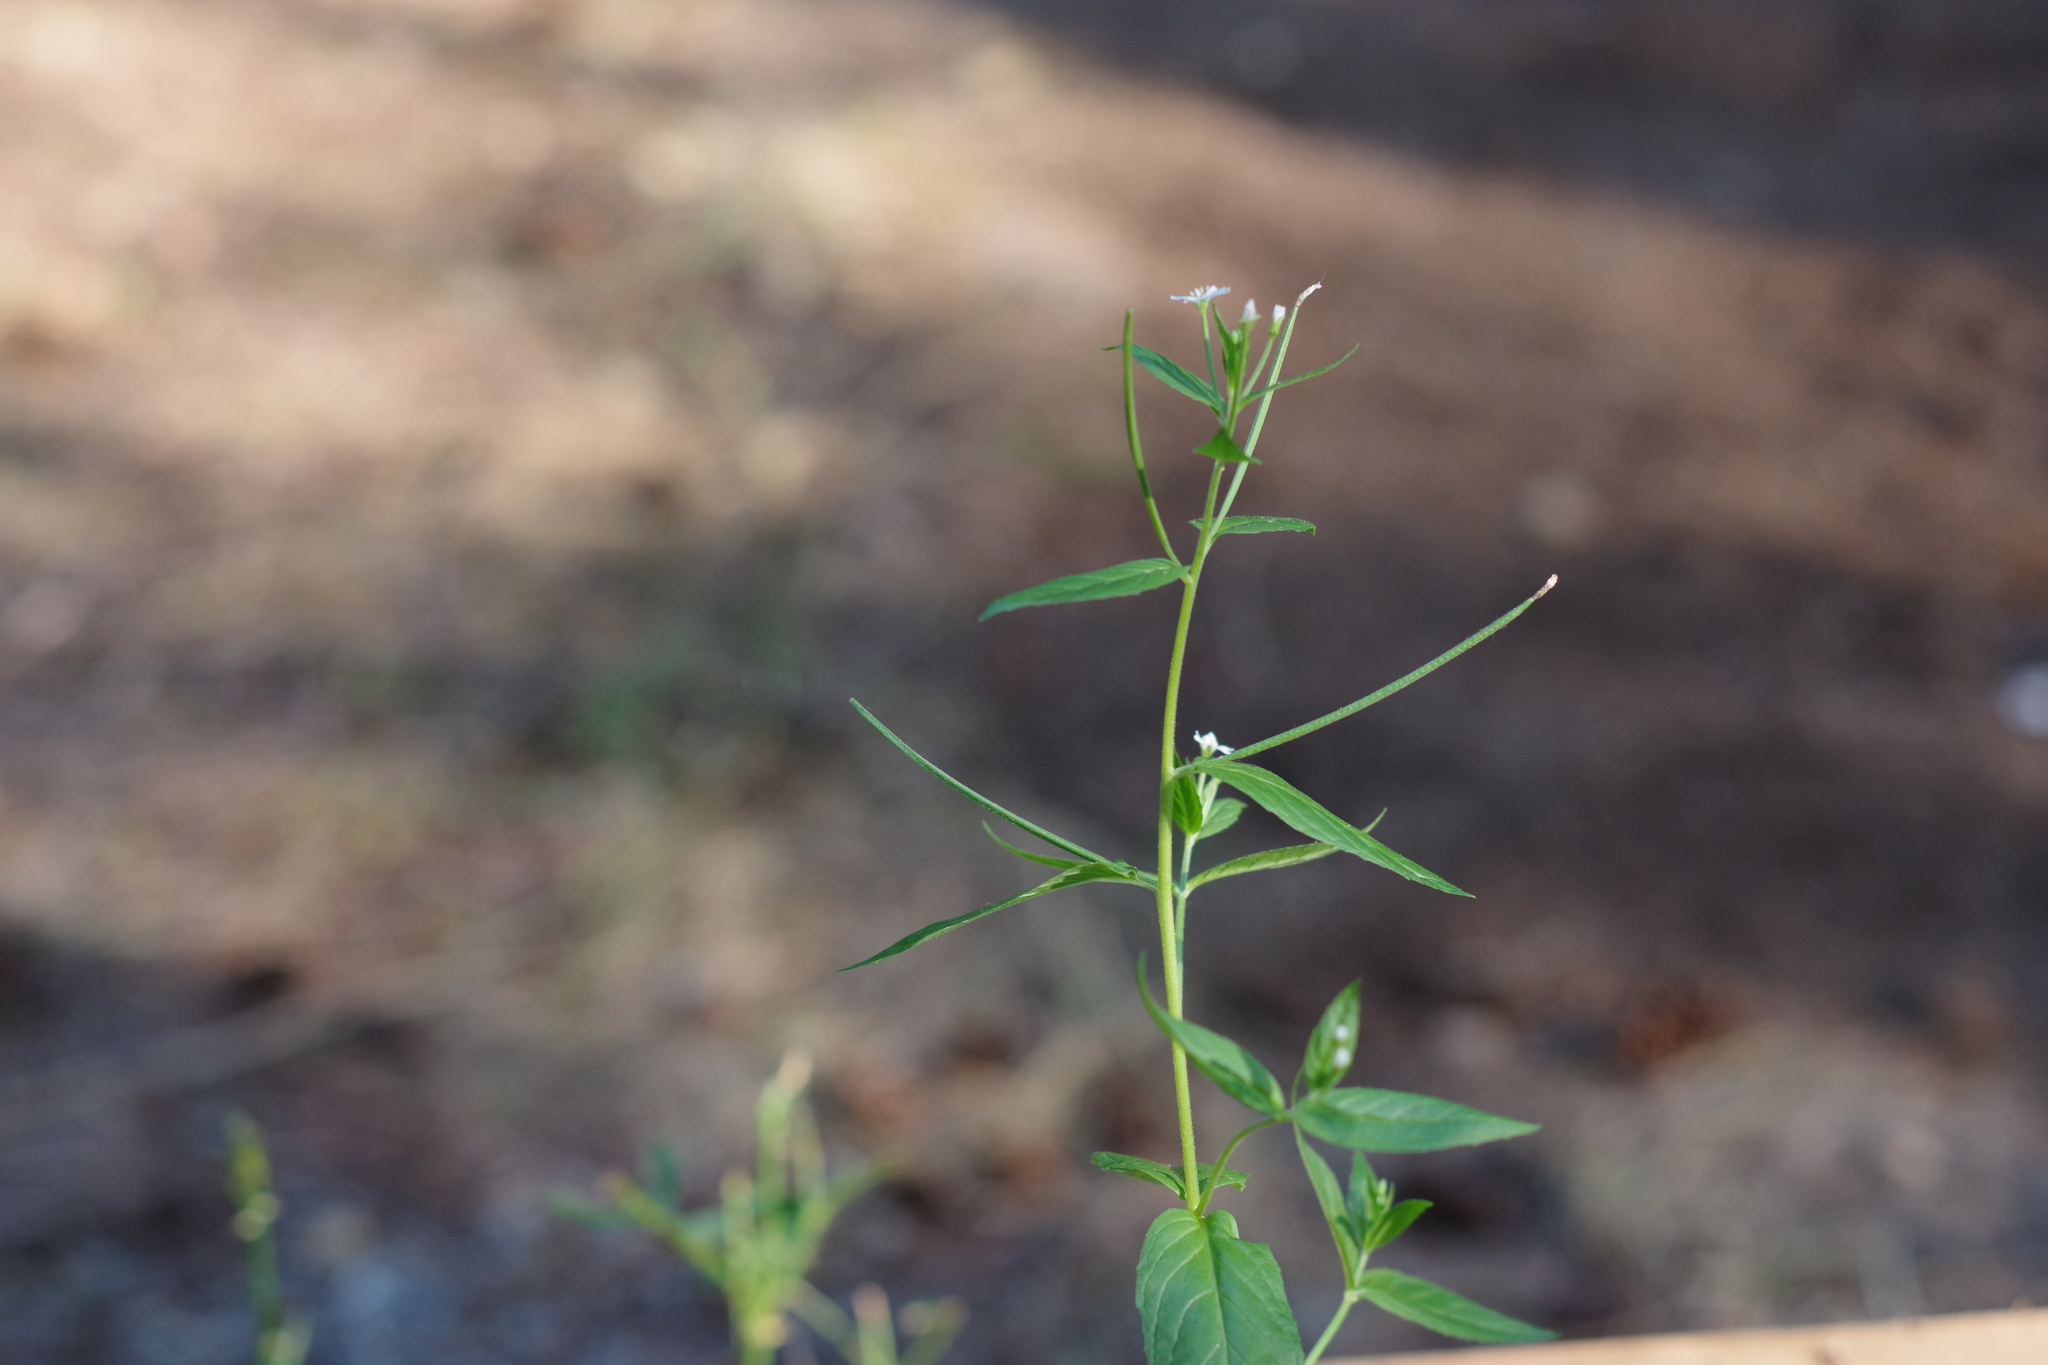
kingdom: Plantae
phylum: Tracheophyta
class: Magnoliopsida
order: Myrtales
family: Onagraceae
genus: Epilobium
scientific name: Epilobium ciliatum
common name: American willowherb
